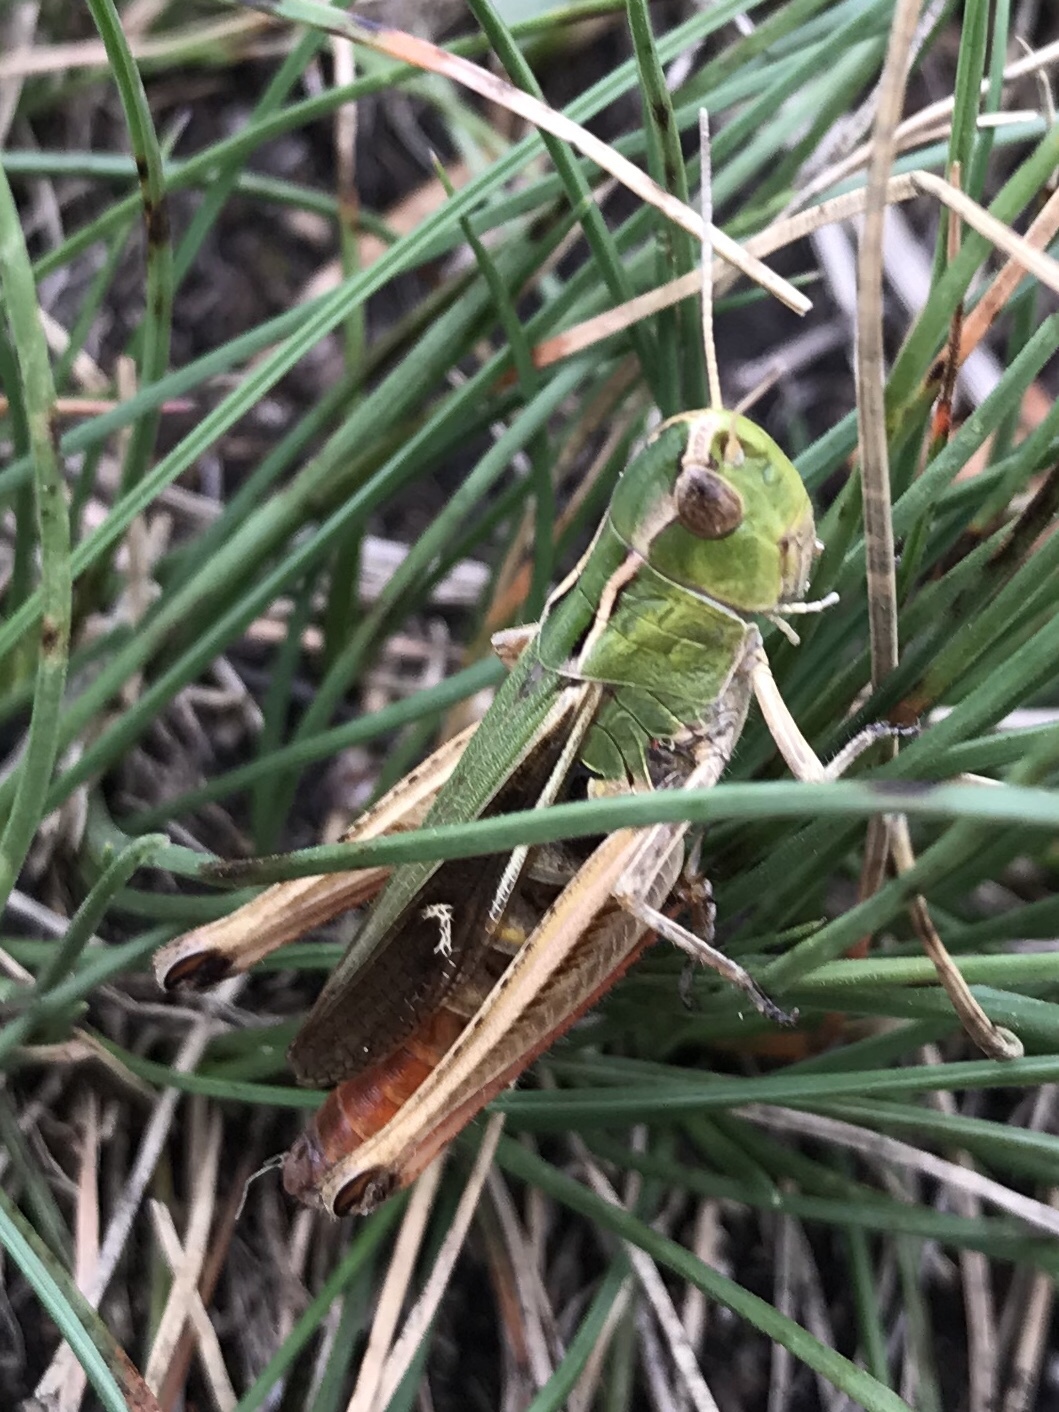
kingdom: Animalia
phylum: Arthropoda
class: Insecta
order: Orthoptera
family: Acrididae
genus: Stenobothrus
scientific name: Stenobothrus lineatus
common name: Stripe-winged grasshopper
